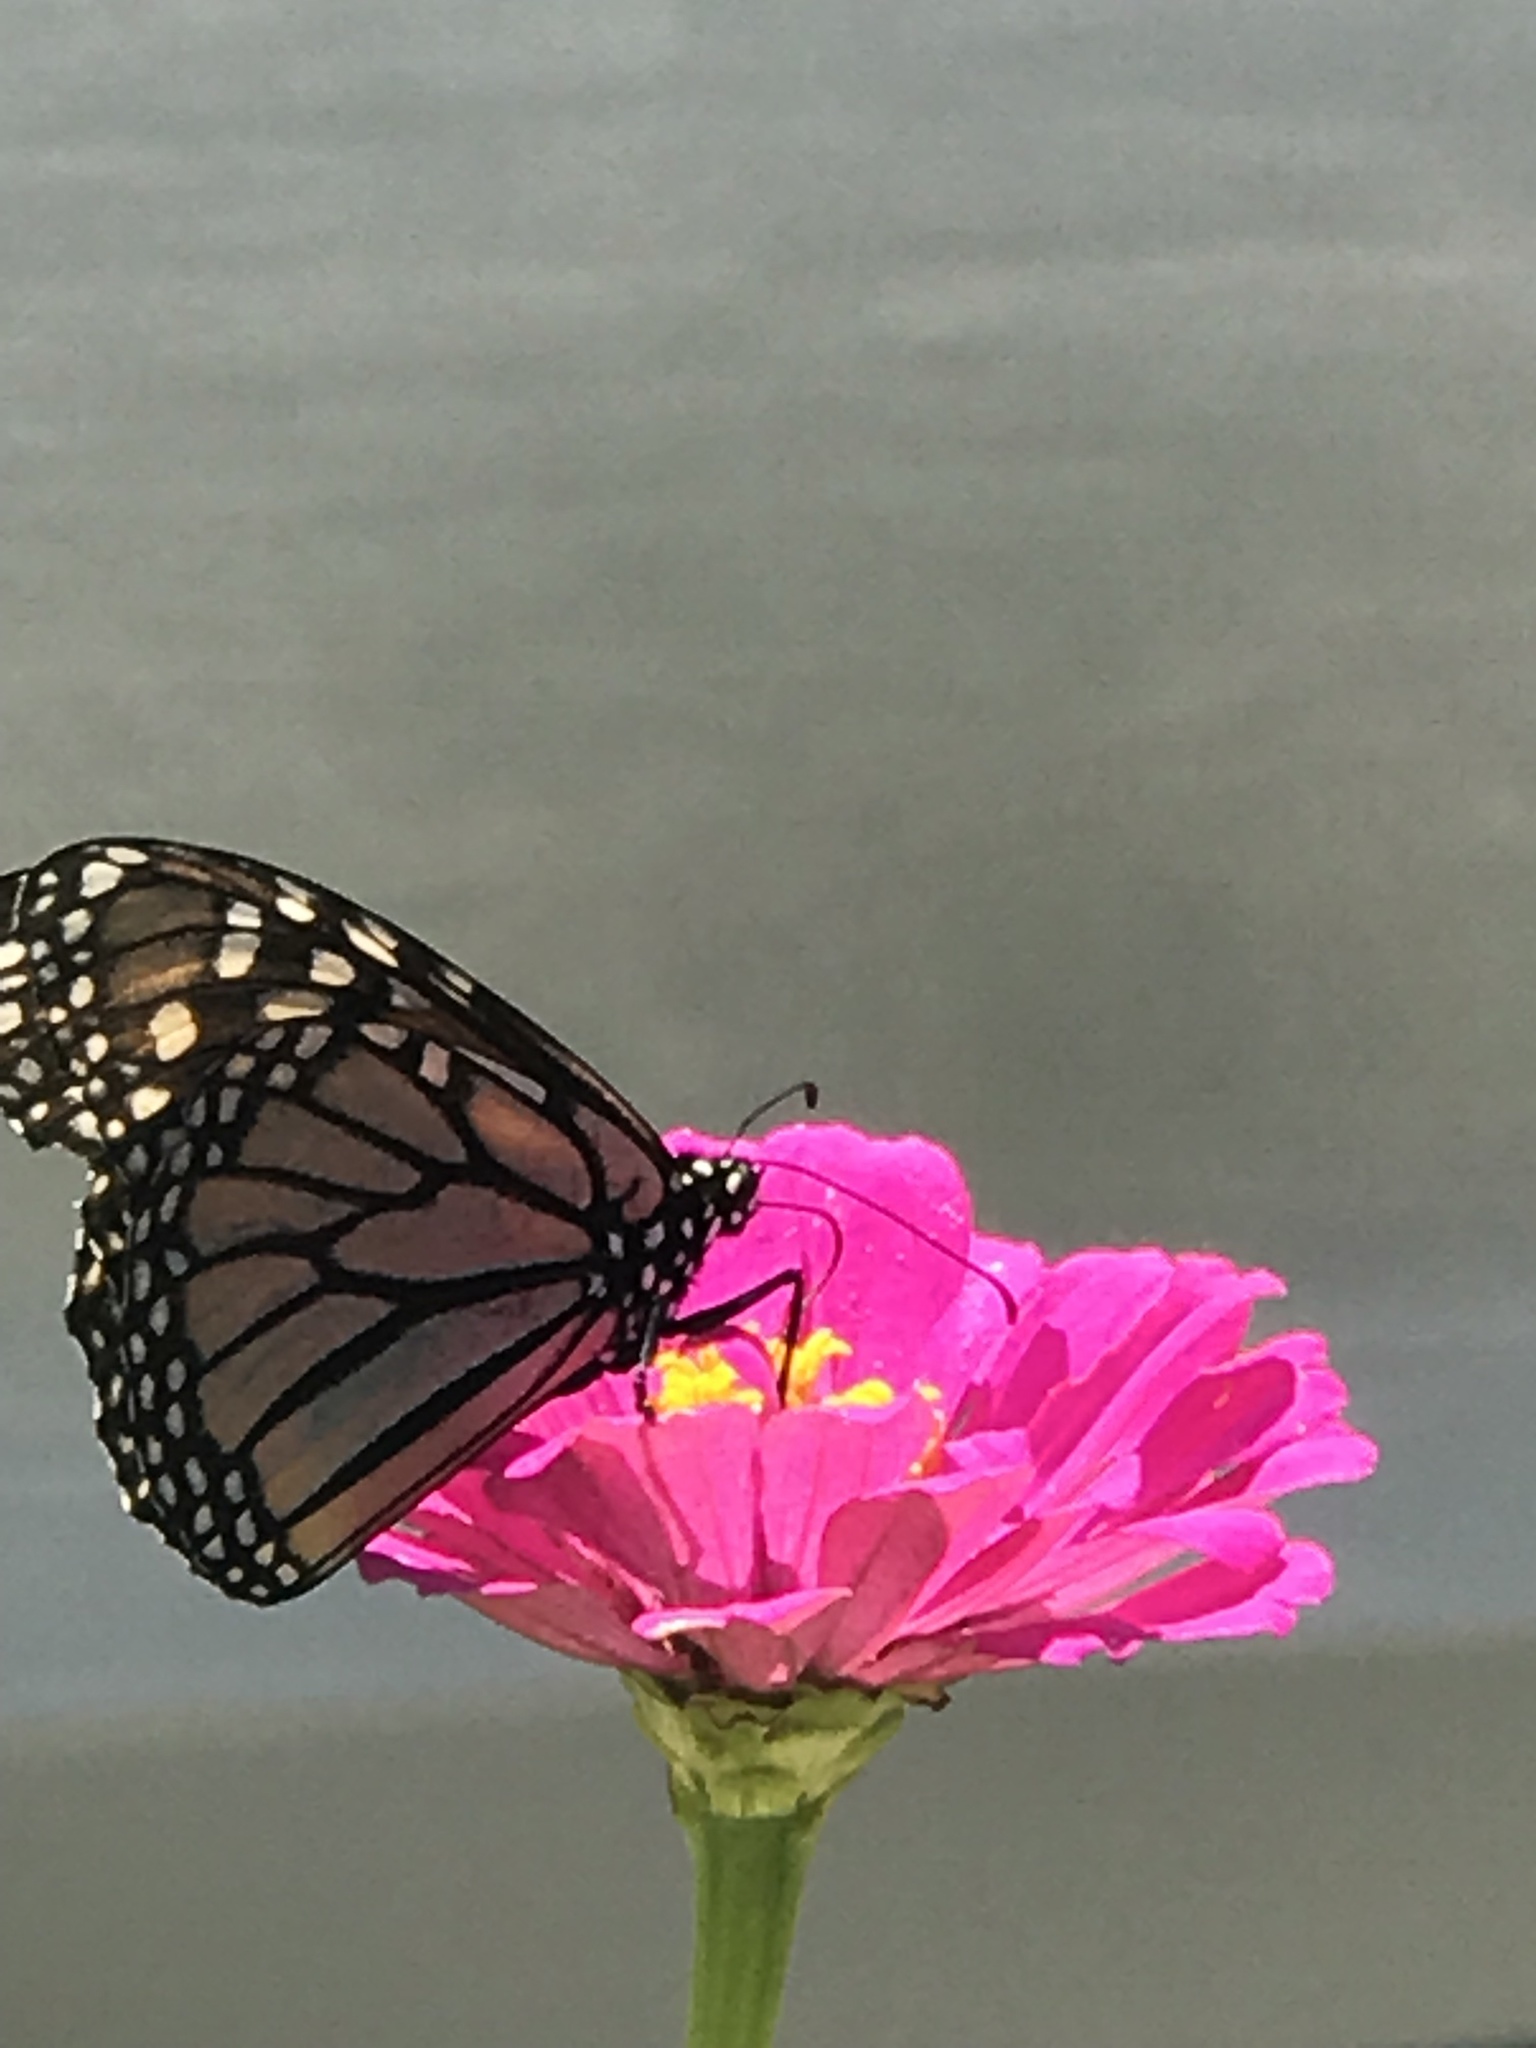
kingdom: Animalia
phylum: Arthropoda
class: Insecta
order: Lepidoptera
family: Nymphalidae
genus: Danaus
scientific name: Danaus plexippus
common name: Monarch
